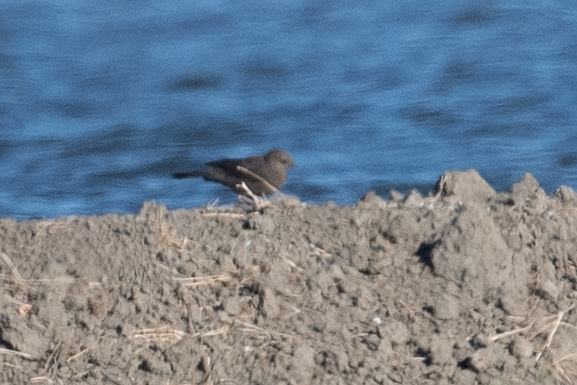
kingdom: Animalia
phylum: Chordata
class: Aves
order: Passeriformes
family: Icteridae
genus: Euphagus
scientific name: Euphagus cyanocephalus
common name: Brewer's blackbird
